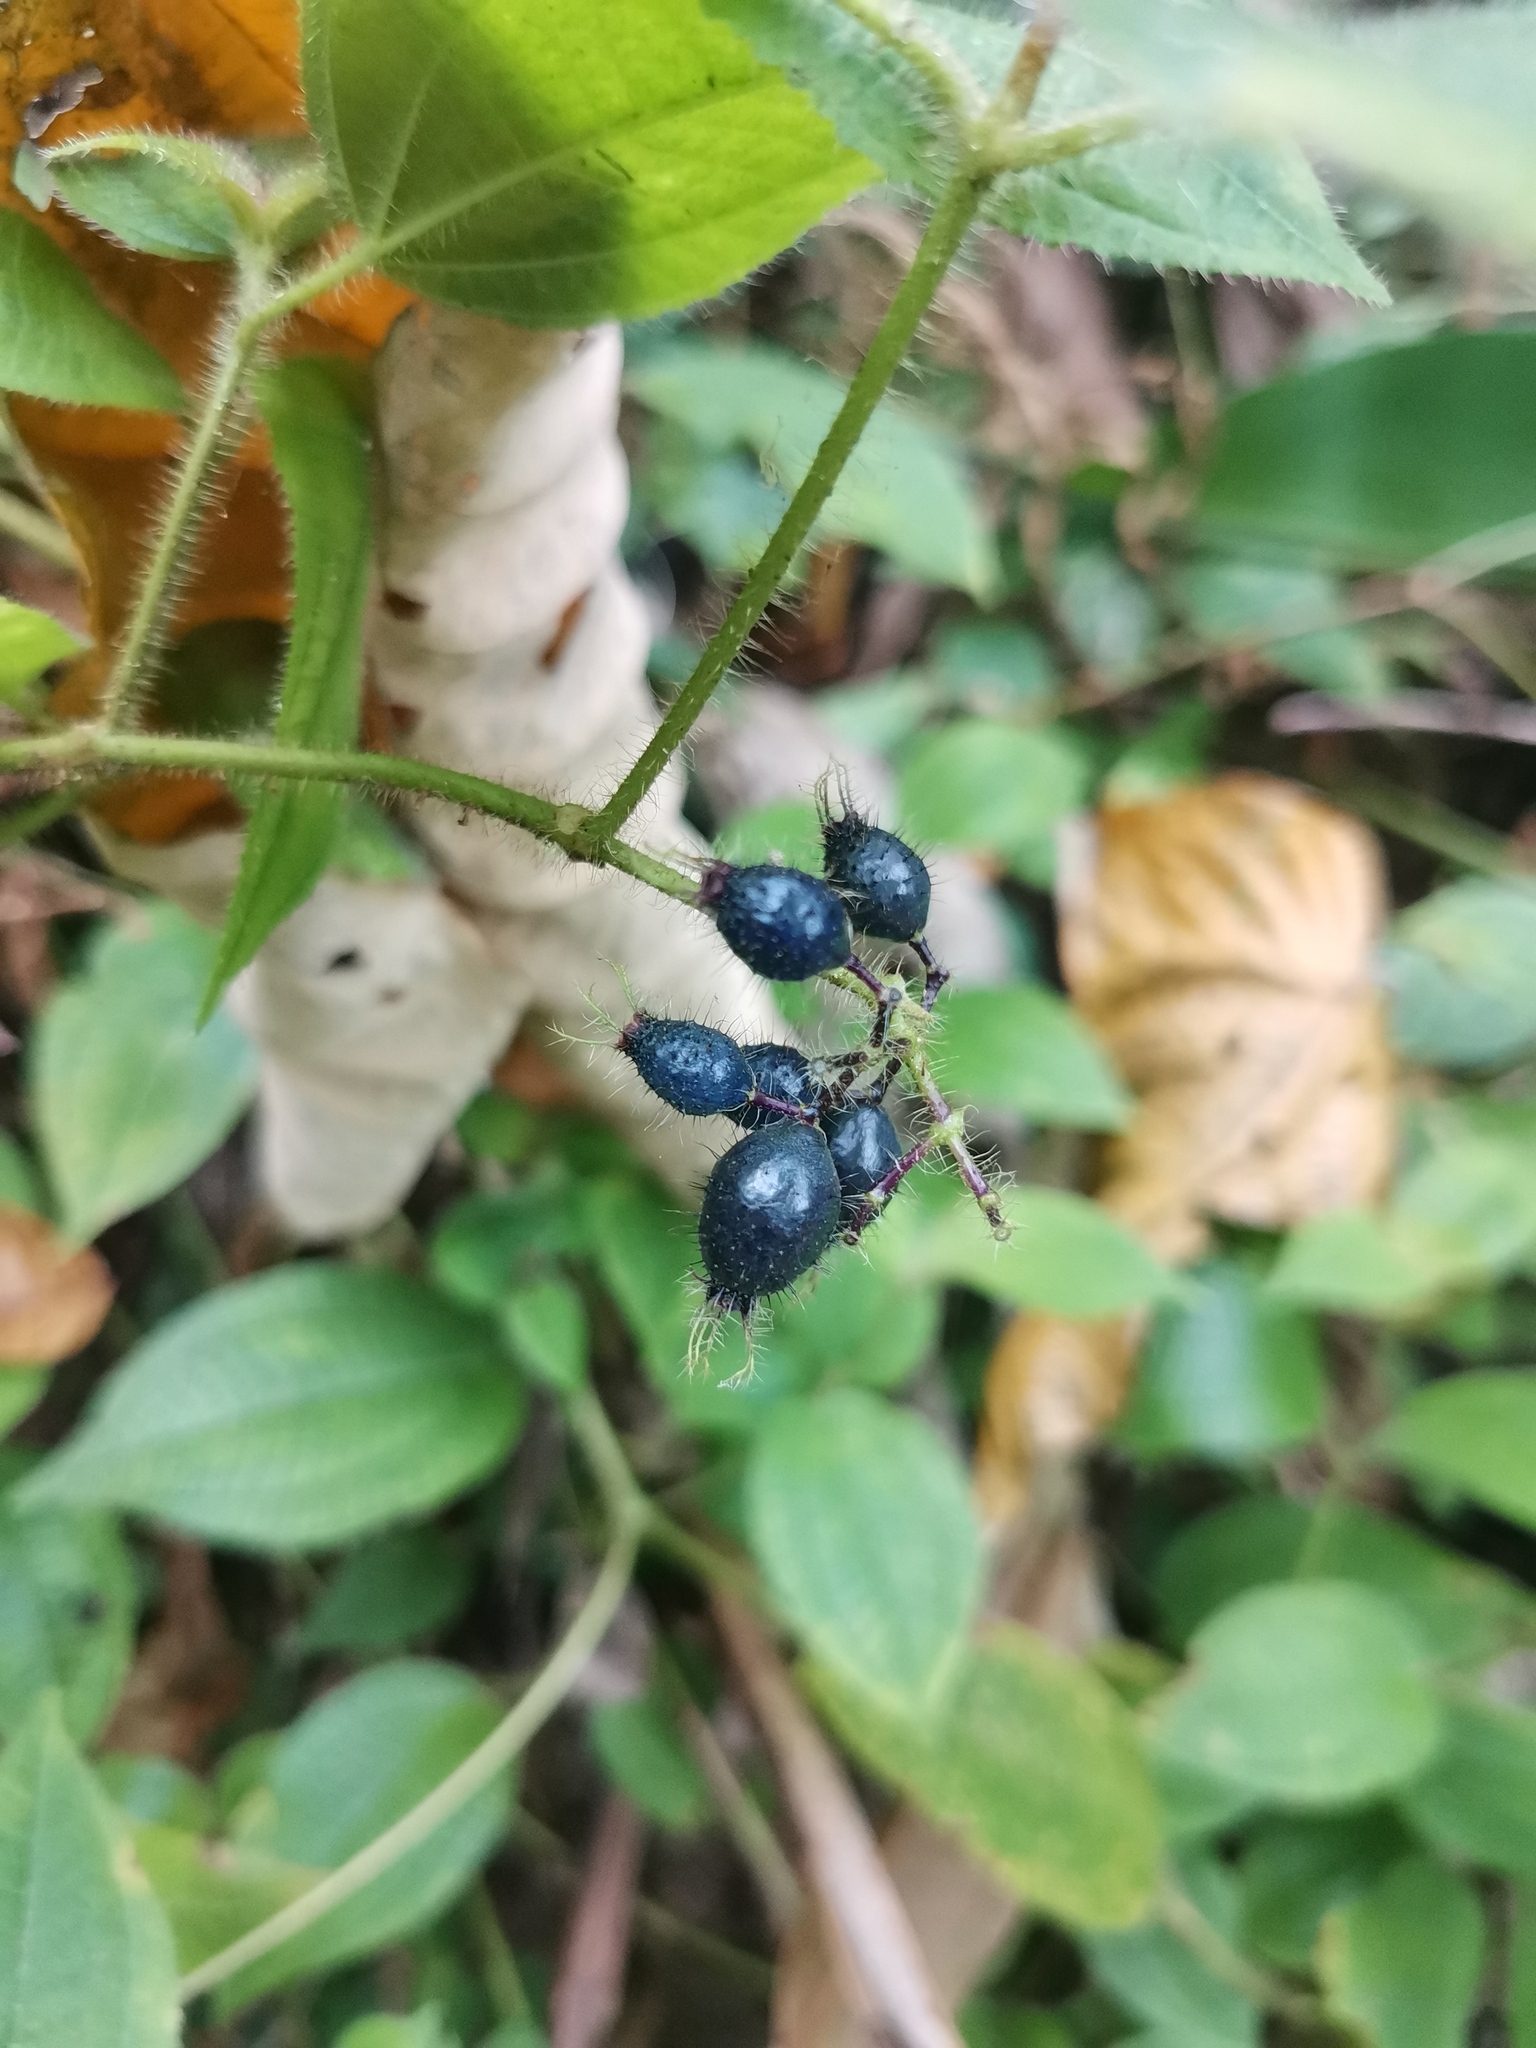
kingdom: Plantae
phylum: Tracheophyta
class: Magnoliopsida
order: Myrtales
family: Melastomataceae
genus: Miconia
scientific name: Miconia crenata
